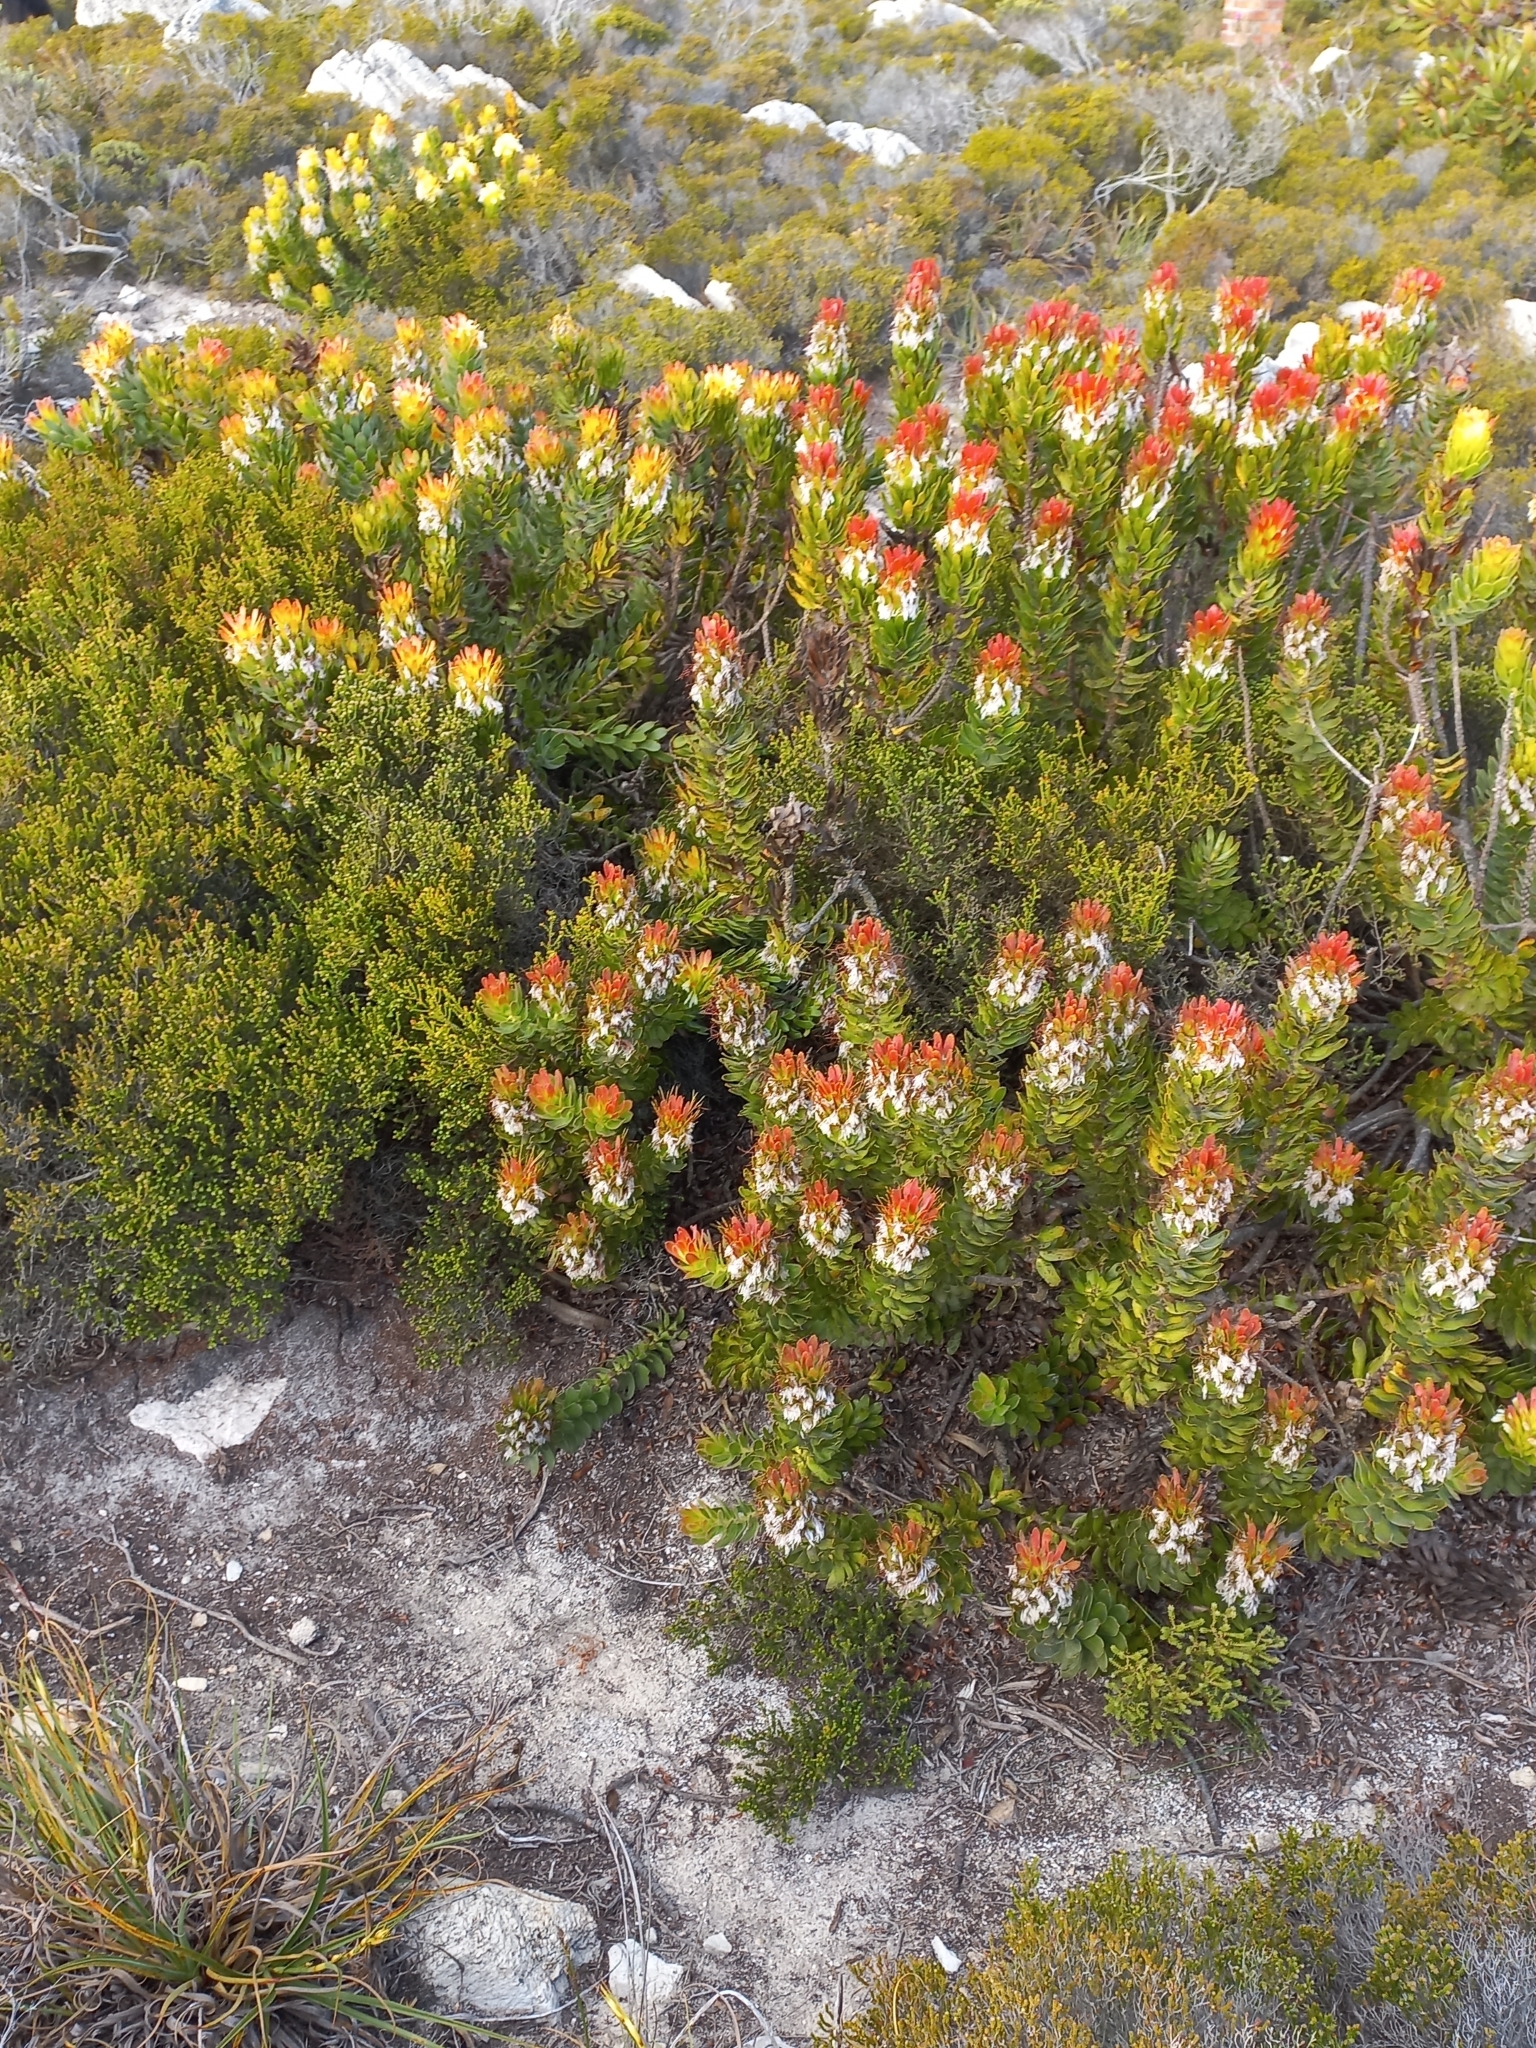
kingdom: Plantae
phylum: Tracheophyta
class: Magnoliopsida
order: Proteales
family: Proteaceae
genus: Mimetes
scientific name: Mimetes cucullatus
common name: Common pagoda
